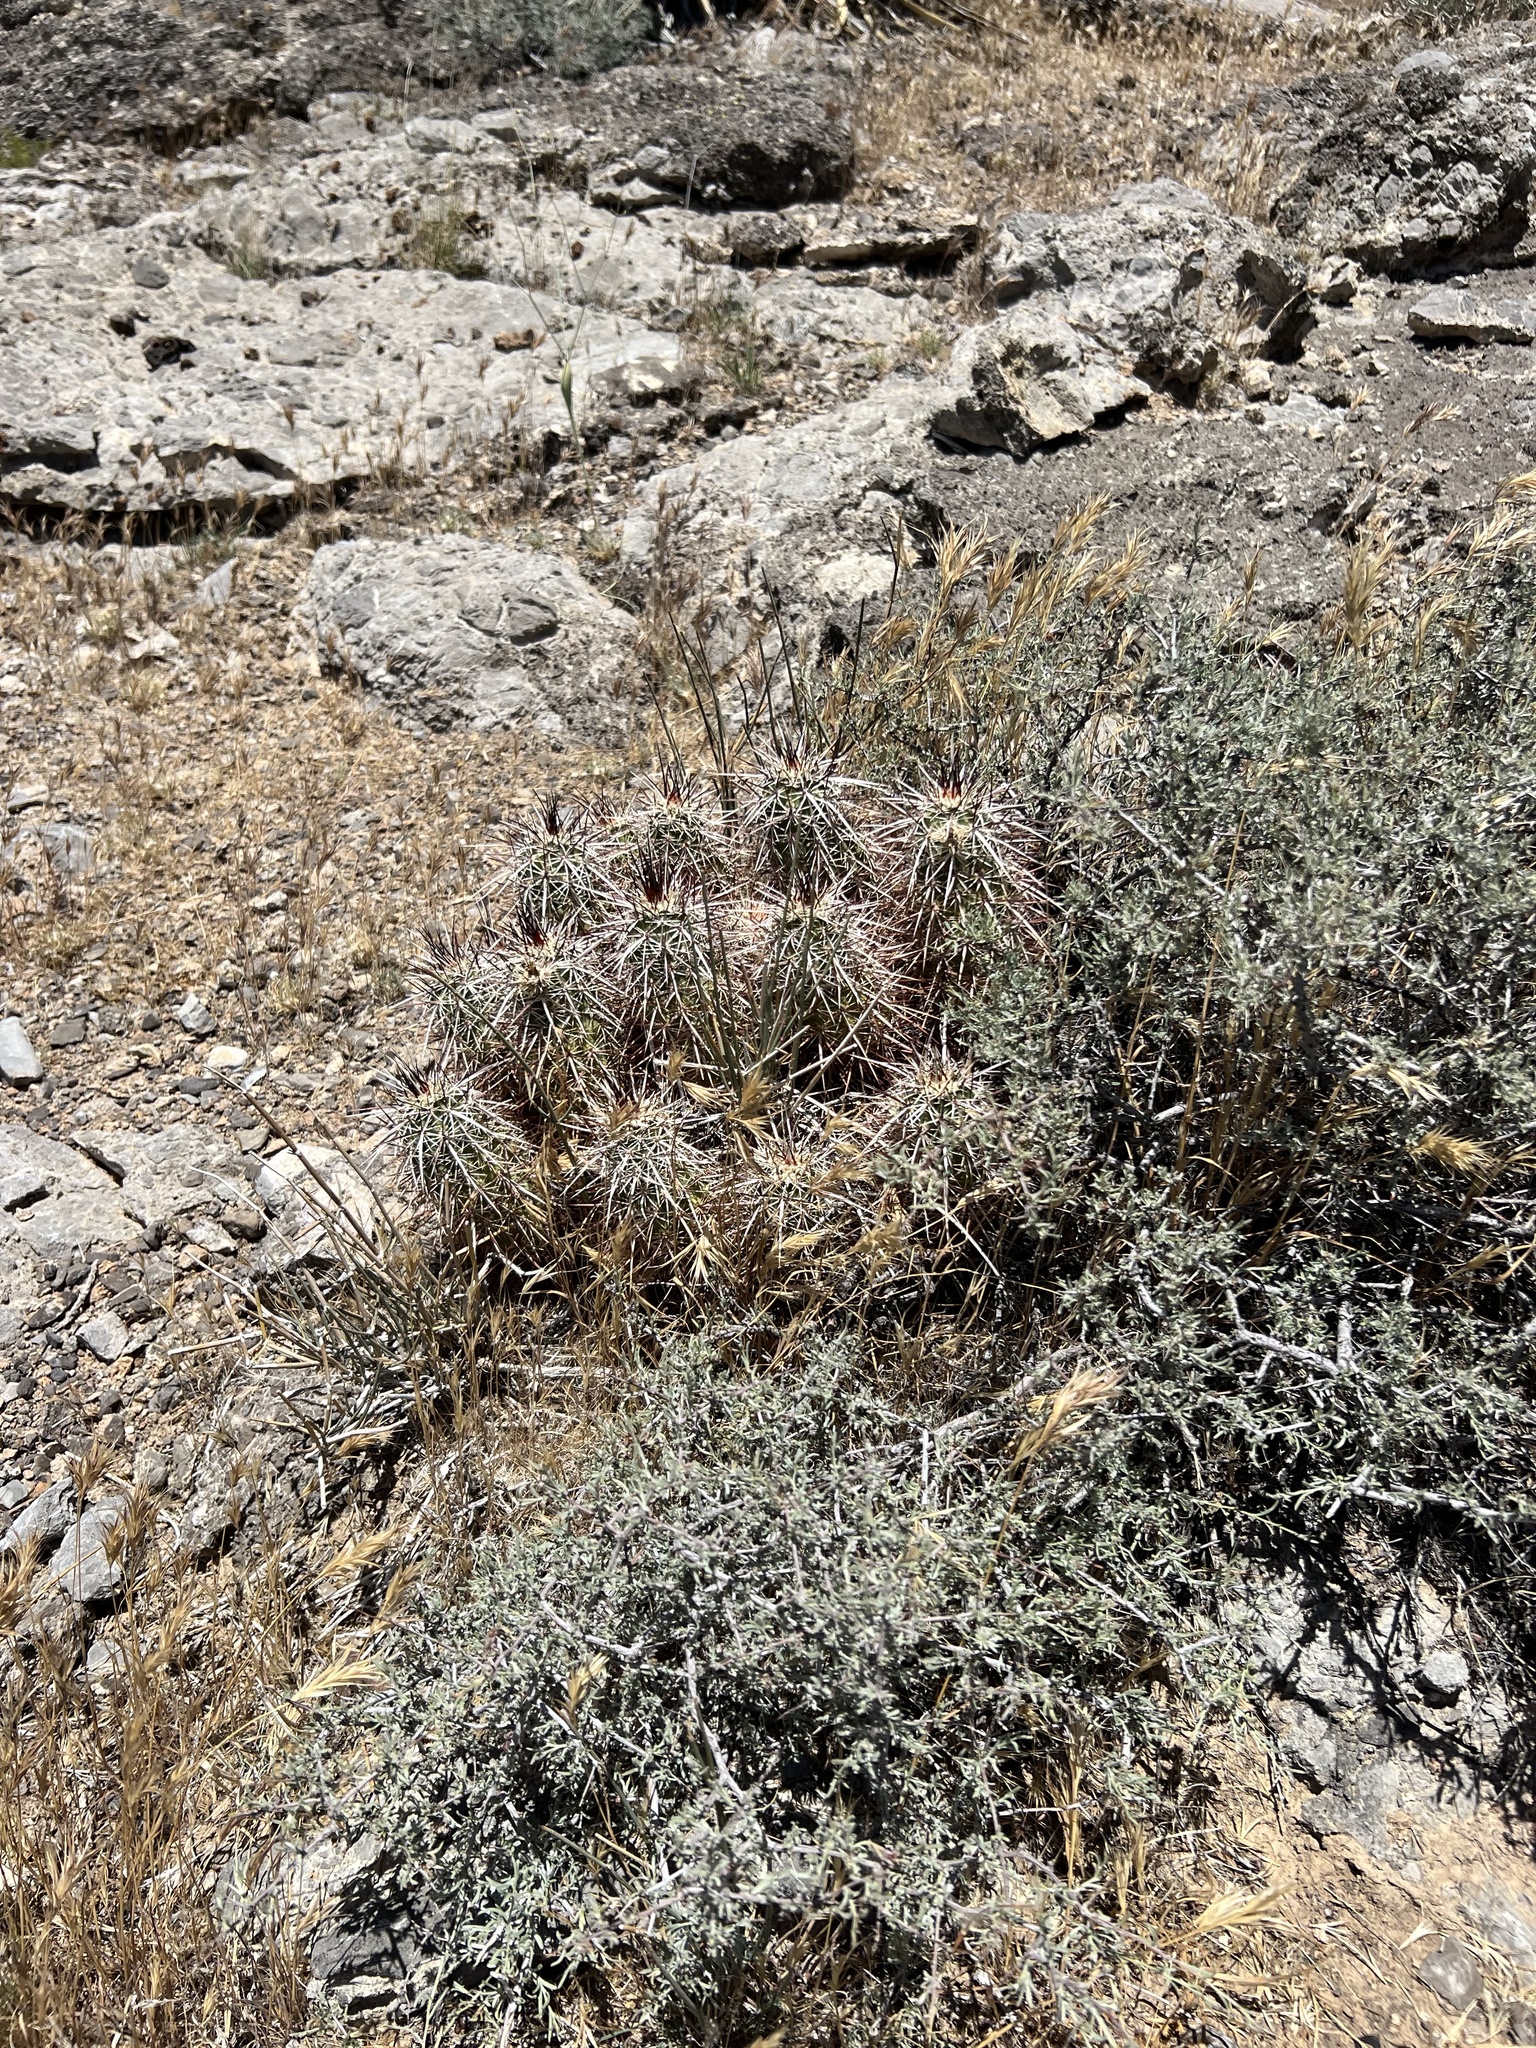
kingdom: Plantae
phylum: Tracheophyta
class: Magnoliopsida
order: Caryophyllales
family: Cactaceae
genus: Echinocereus
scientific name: Echinocereus engelmannii
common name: Engelmann's hedgehog cactus
